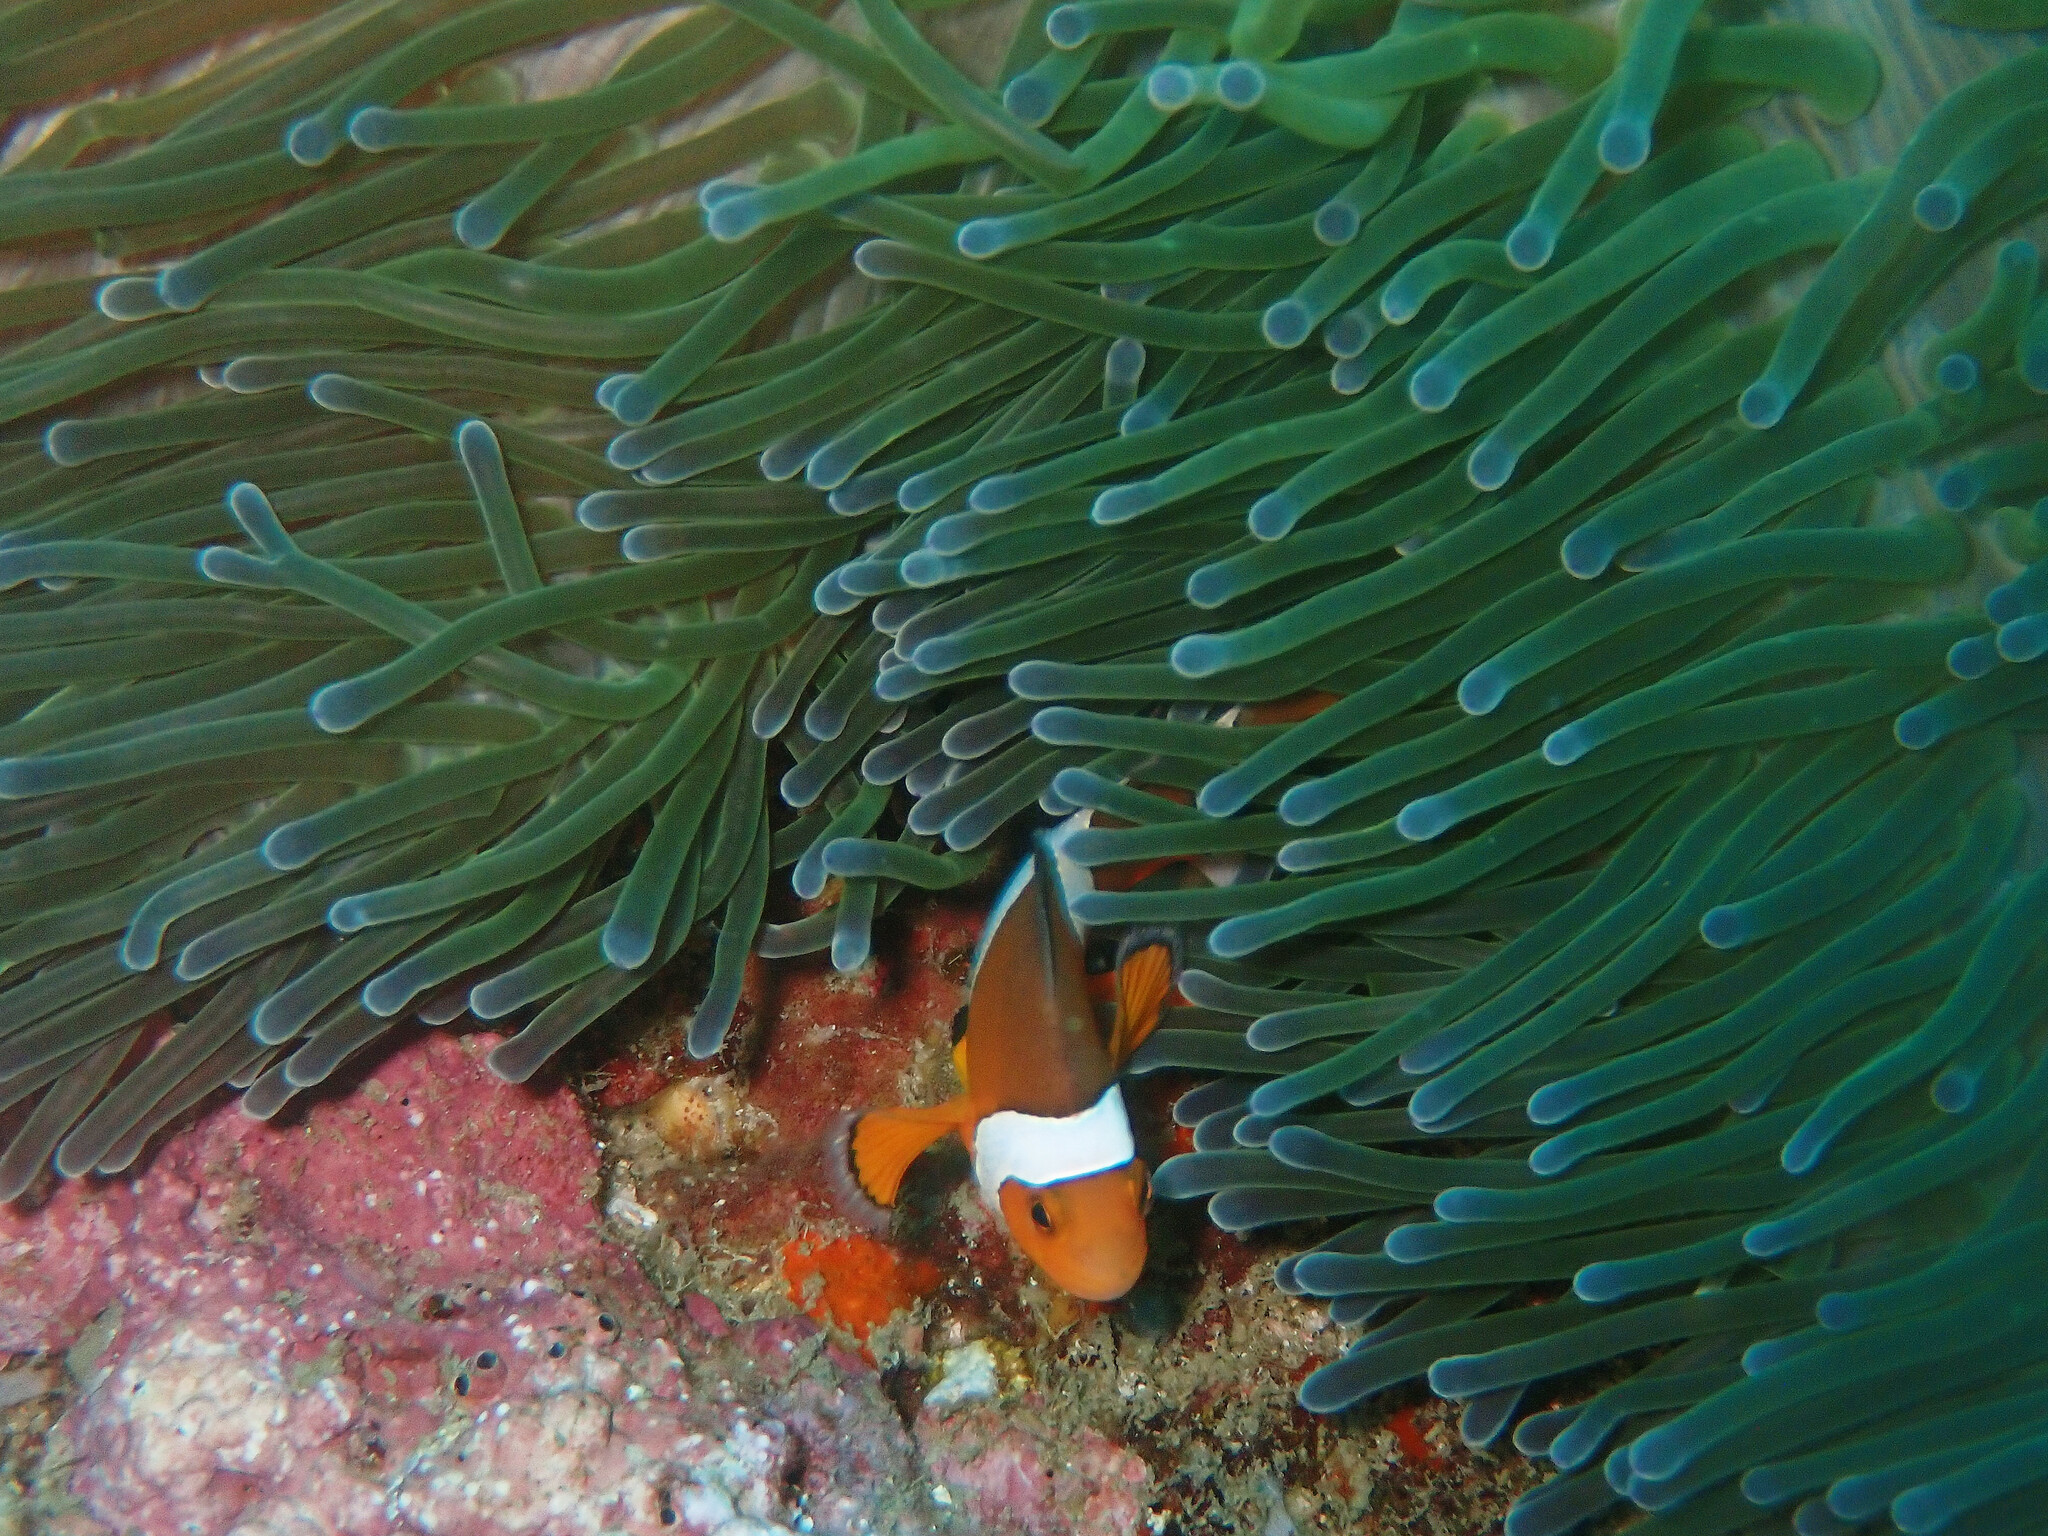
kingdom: Animalia
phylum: Chordata
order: Perciformes
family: Pomacentridae
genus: Amphiprion
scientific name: Amphiprion ocellaris
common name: Clown anemonefish
